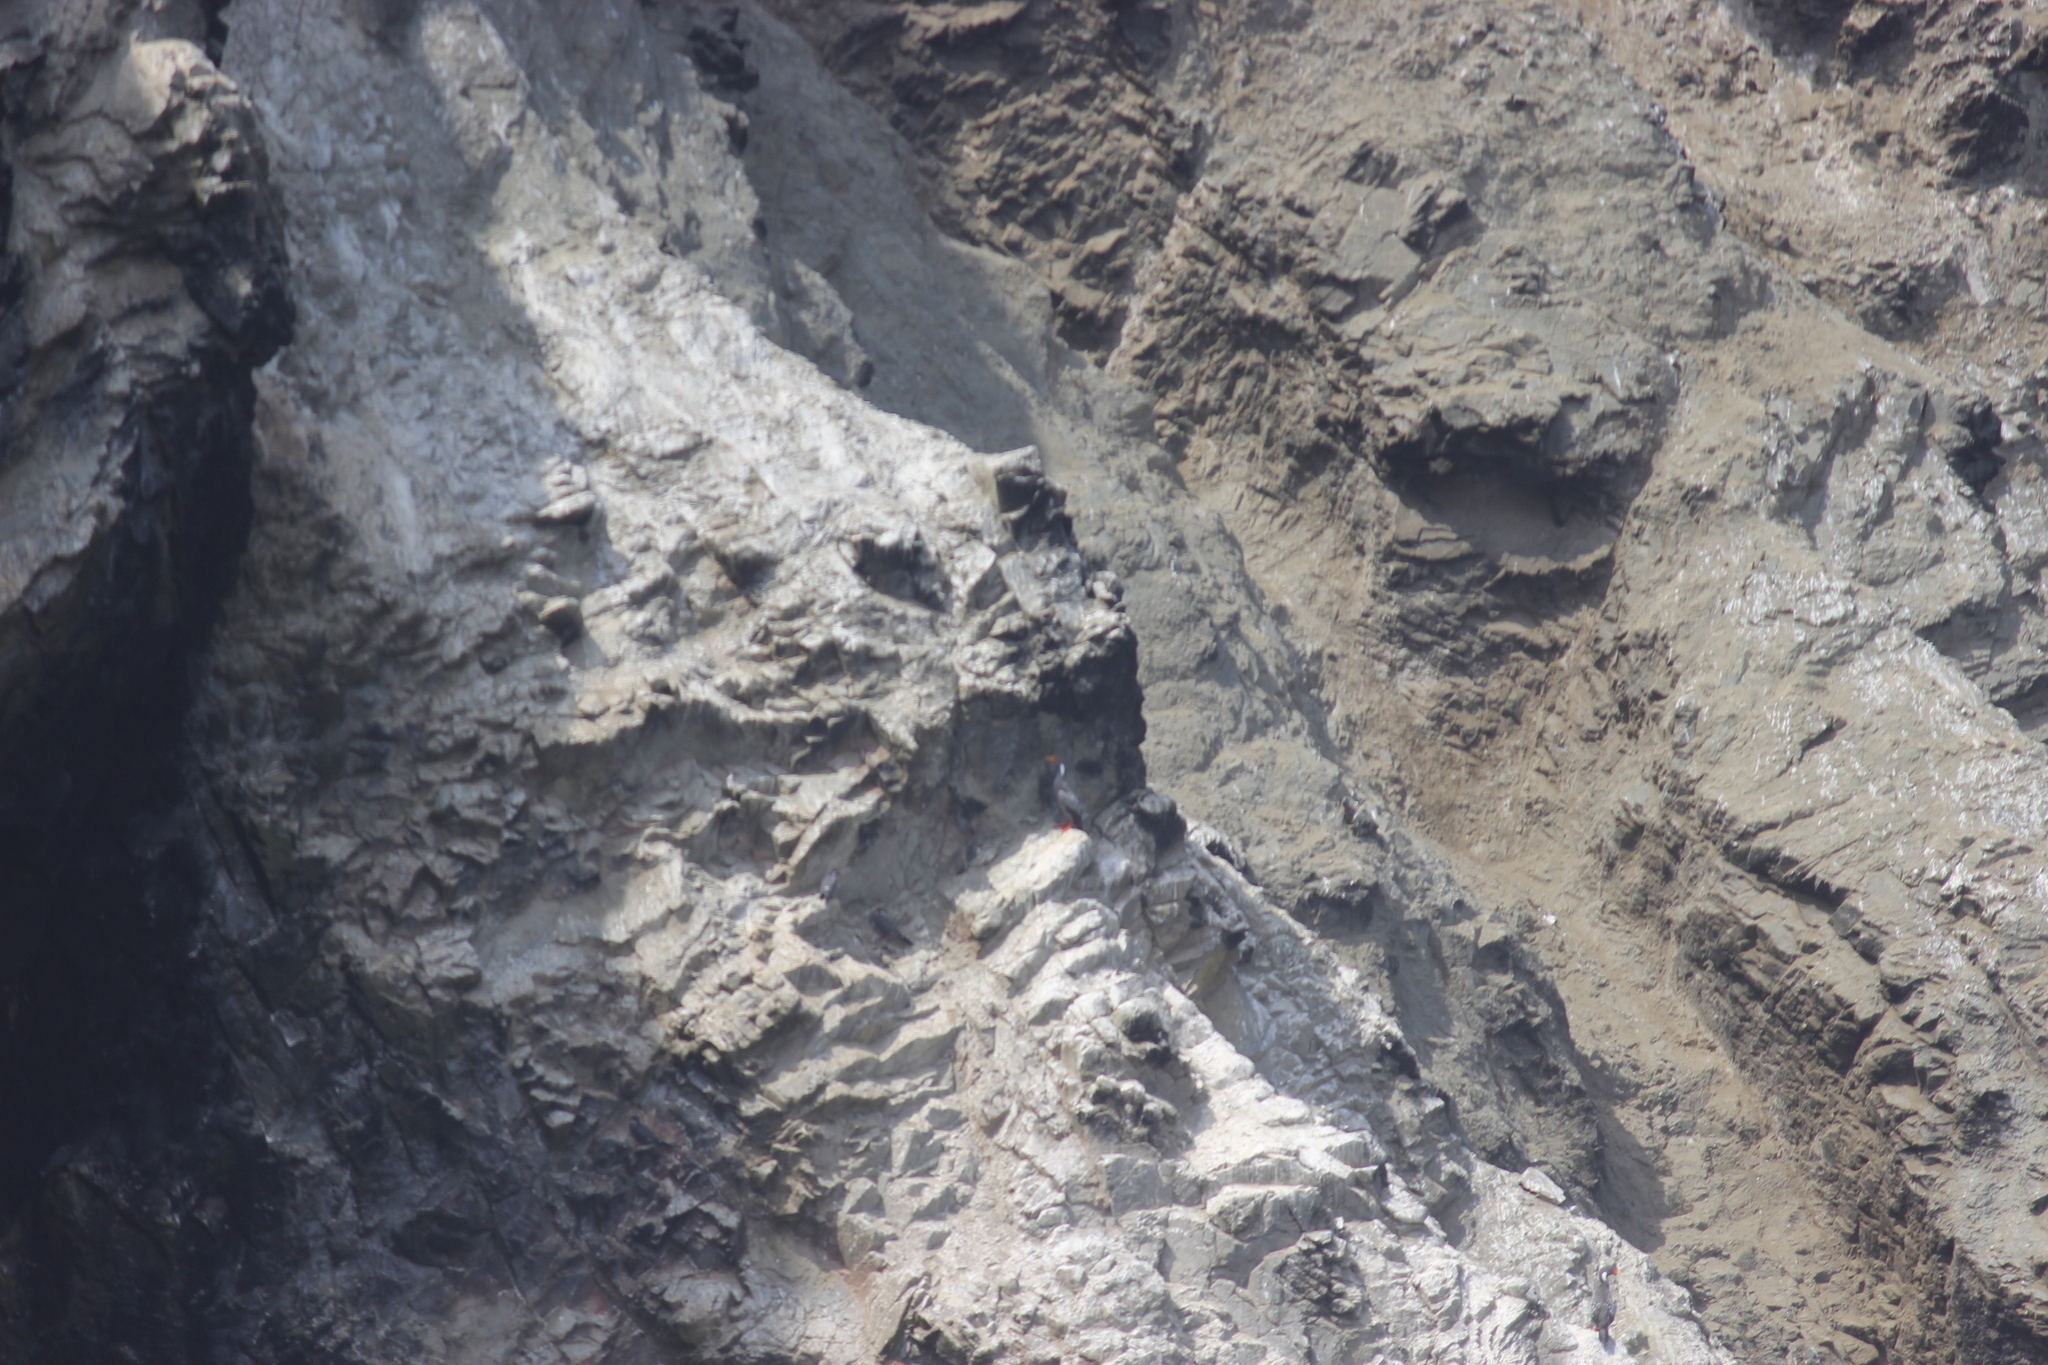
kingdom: Animalia
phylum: Chordata
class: Aves
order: Suliformes
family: Phalacrocoracidae
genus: Phalacrocorax
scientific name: Phalacrocorax gaimardi
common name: Red-legged cormorant
